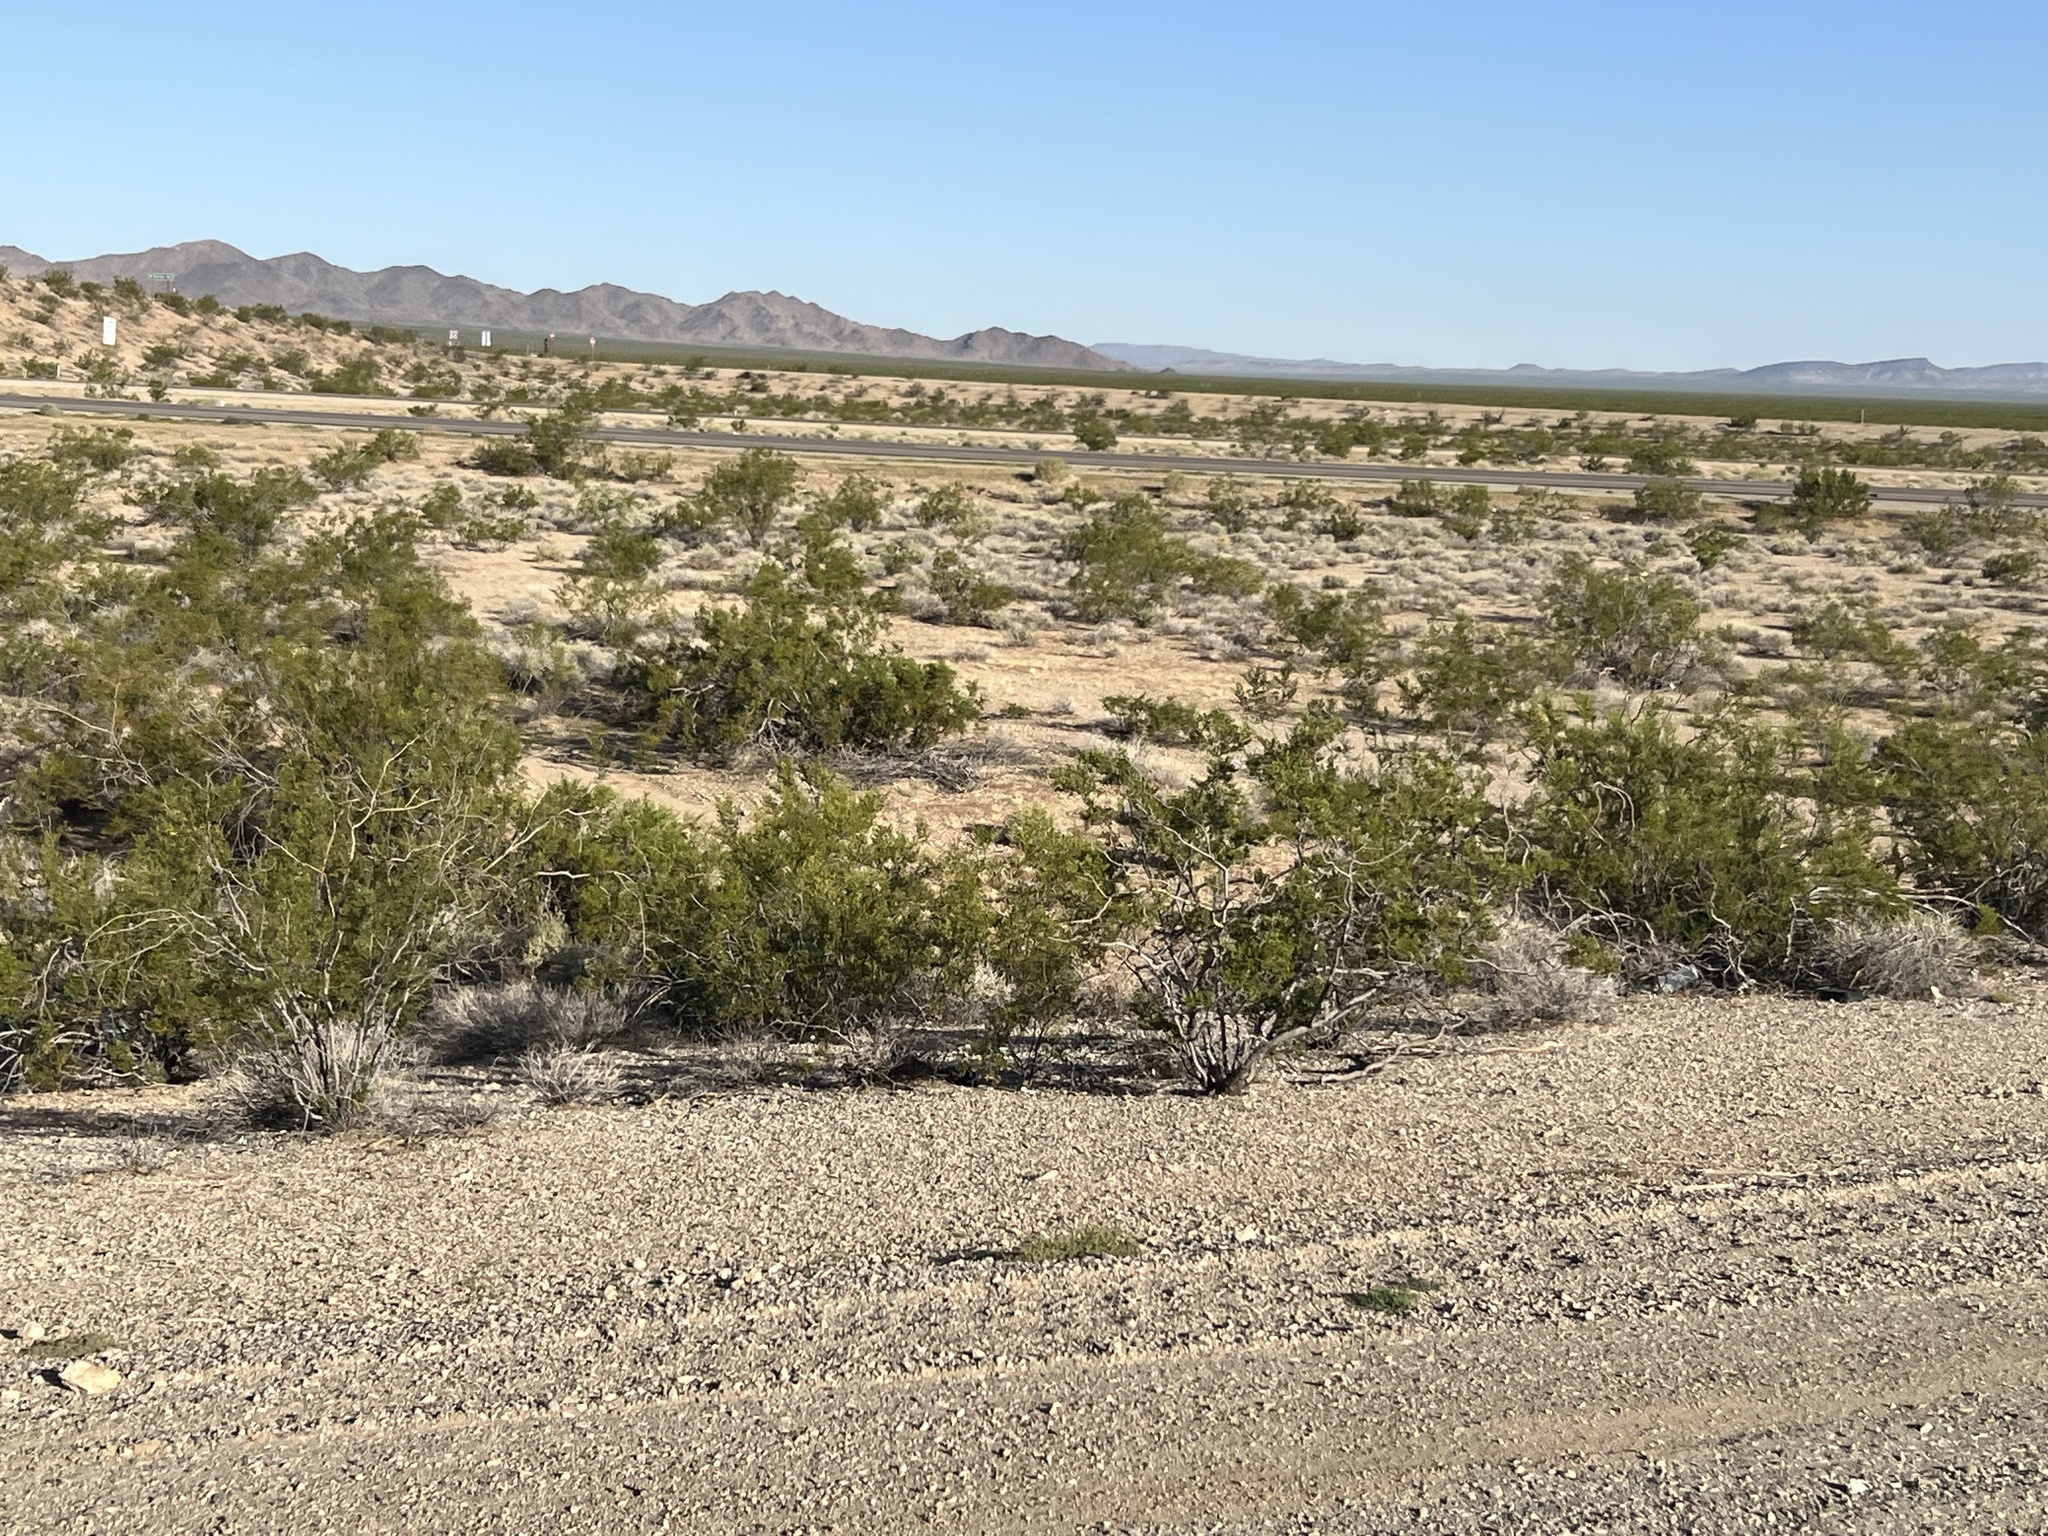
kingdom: Plantae
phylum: Tracheophyta
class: Magnoliopsida
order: Zygophyllales
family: Zygophyllaceae
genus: Larrea
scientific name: Larrea tridentata
